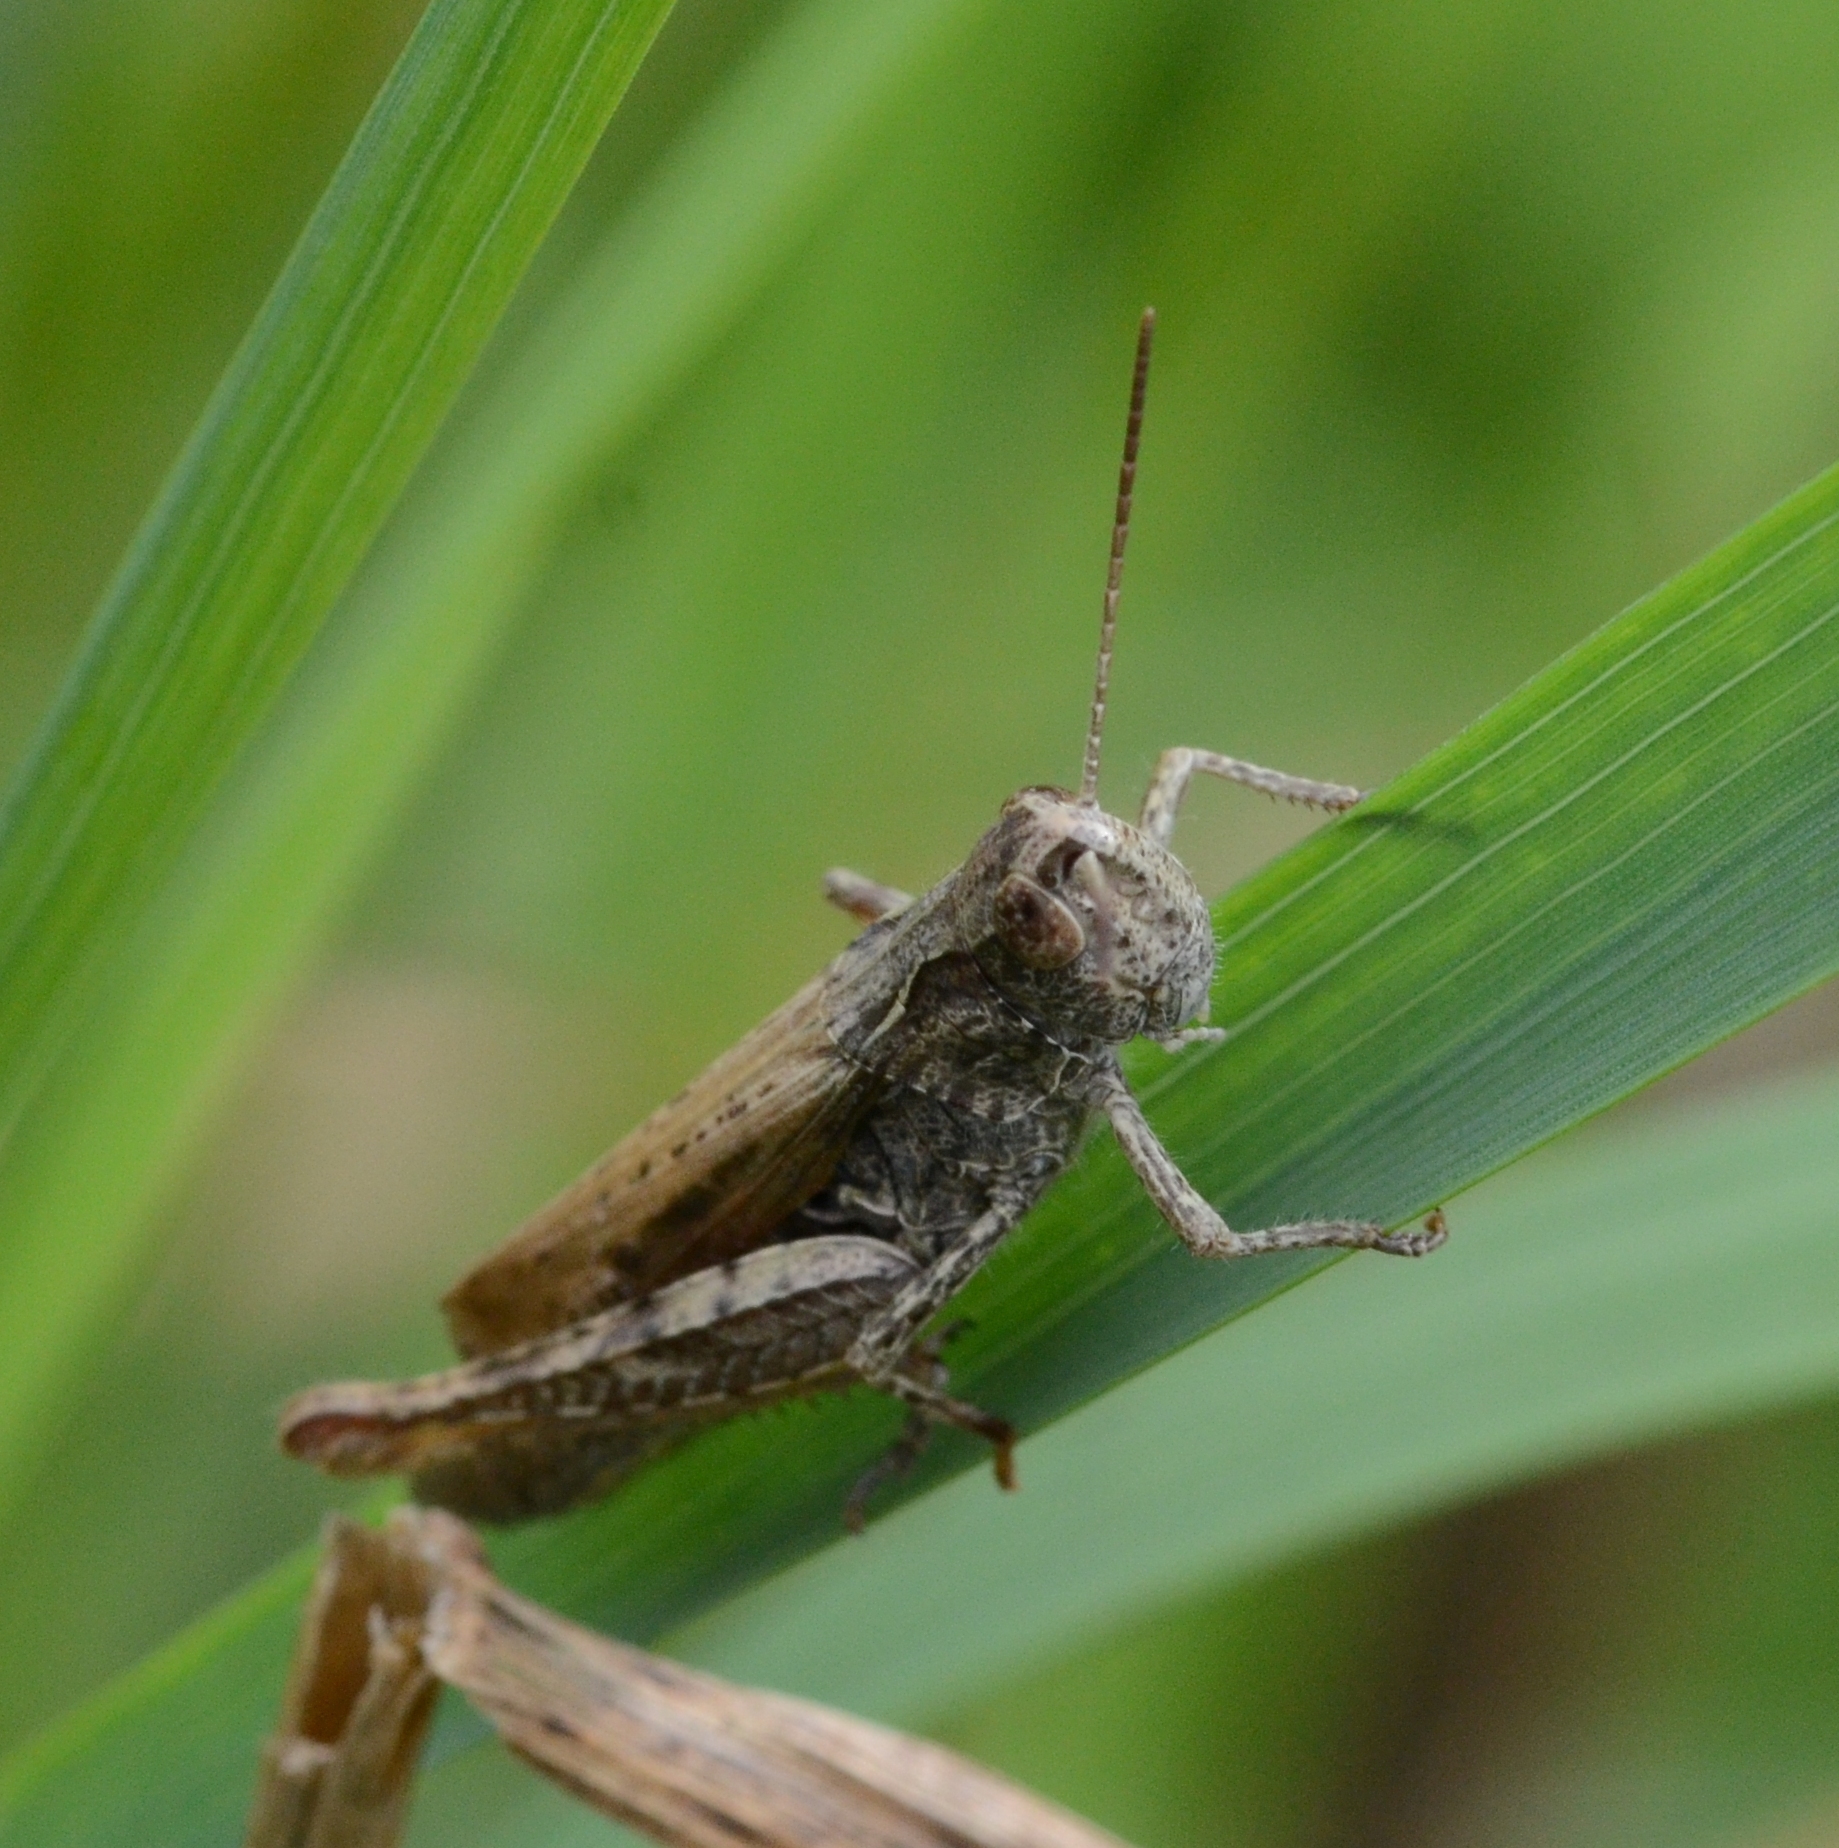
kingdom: Animalia
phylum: Arthropoda
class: Insecta
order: Orthoptera
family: Acrididae
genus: Chorthippus
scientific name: Chorthippus apricarius
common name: Upland field grasshopper
